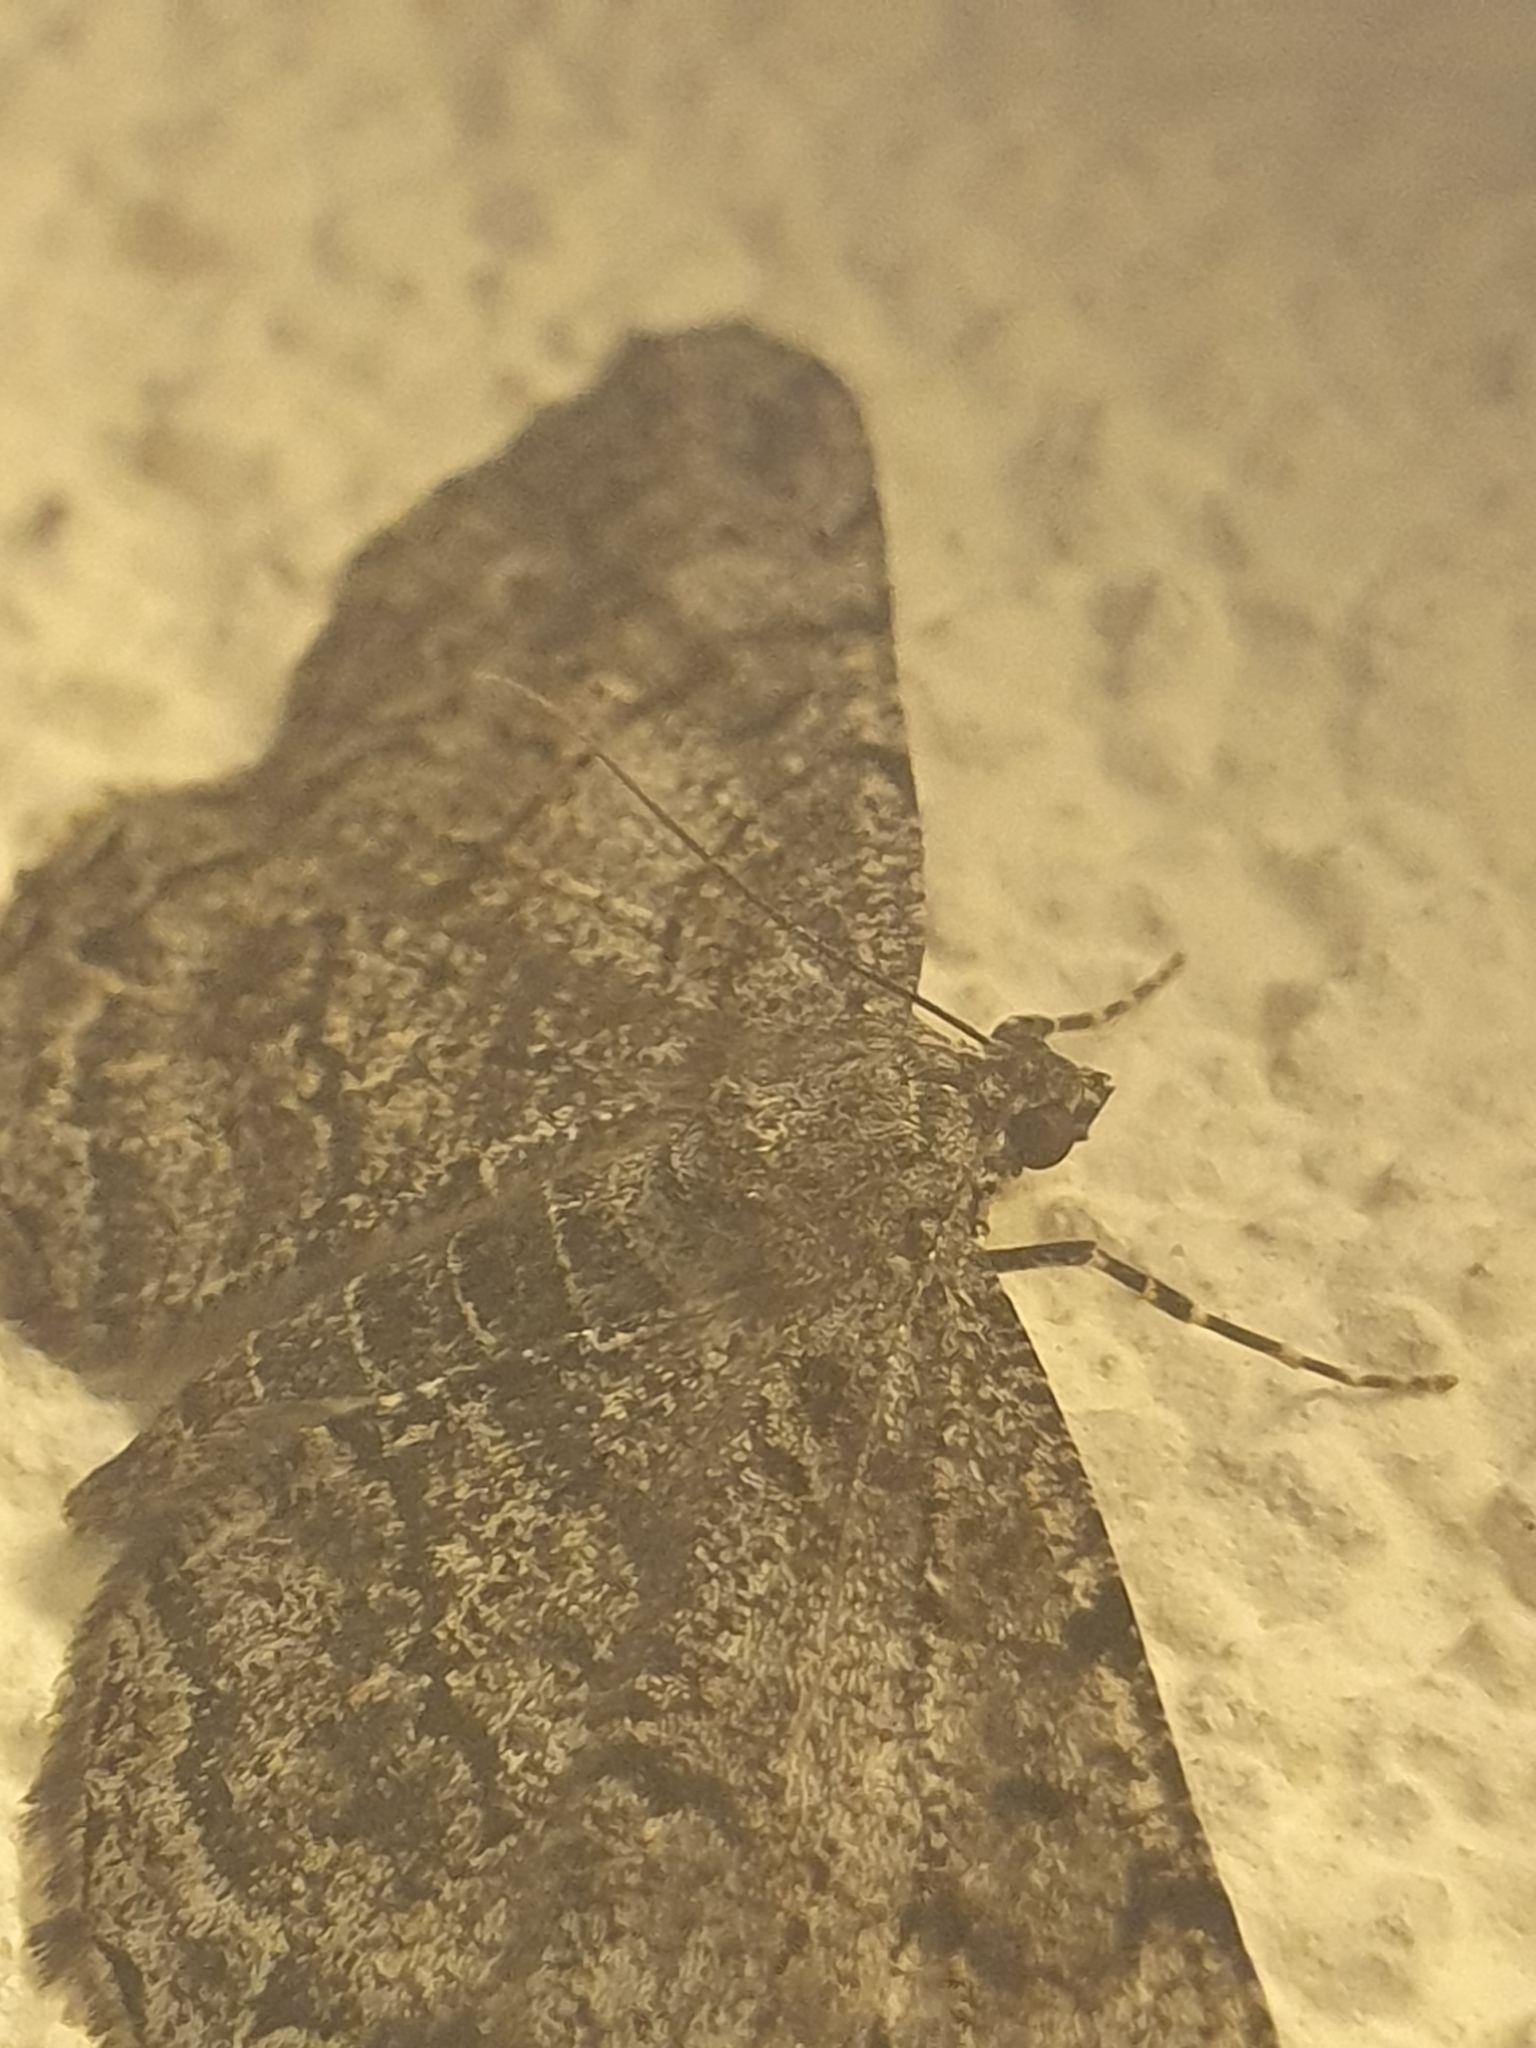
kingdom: Animalia
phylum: Arthropoda
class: Insecta
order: Lepidoptera
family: Geometridae
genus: Peribatodes
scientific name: Peribatodes rhomboidaria
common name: Willow beauty
